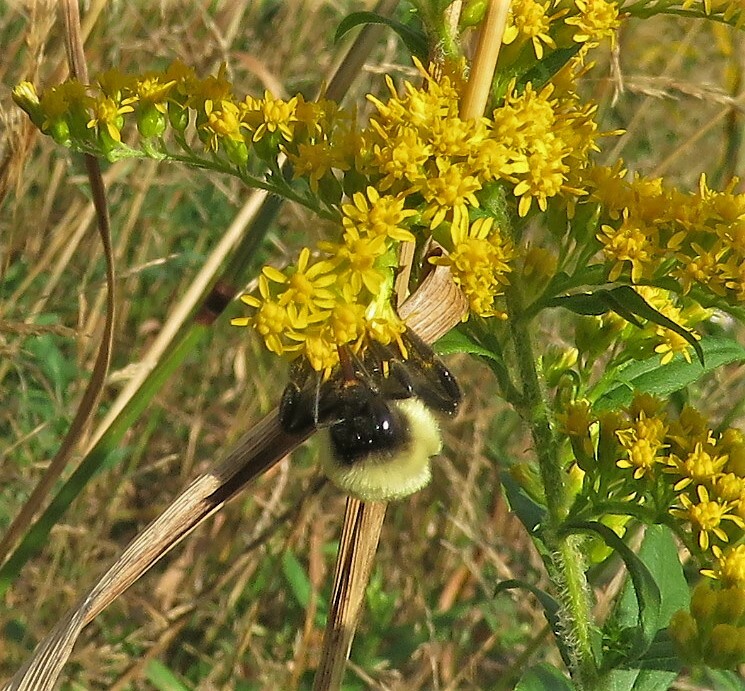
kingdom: Animalia
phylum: Arthropoda
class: Insecta
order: Hymenoptera
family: Apidae
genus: Bombus
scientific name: Bombus impatiens
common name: Common eastern bumble bee
